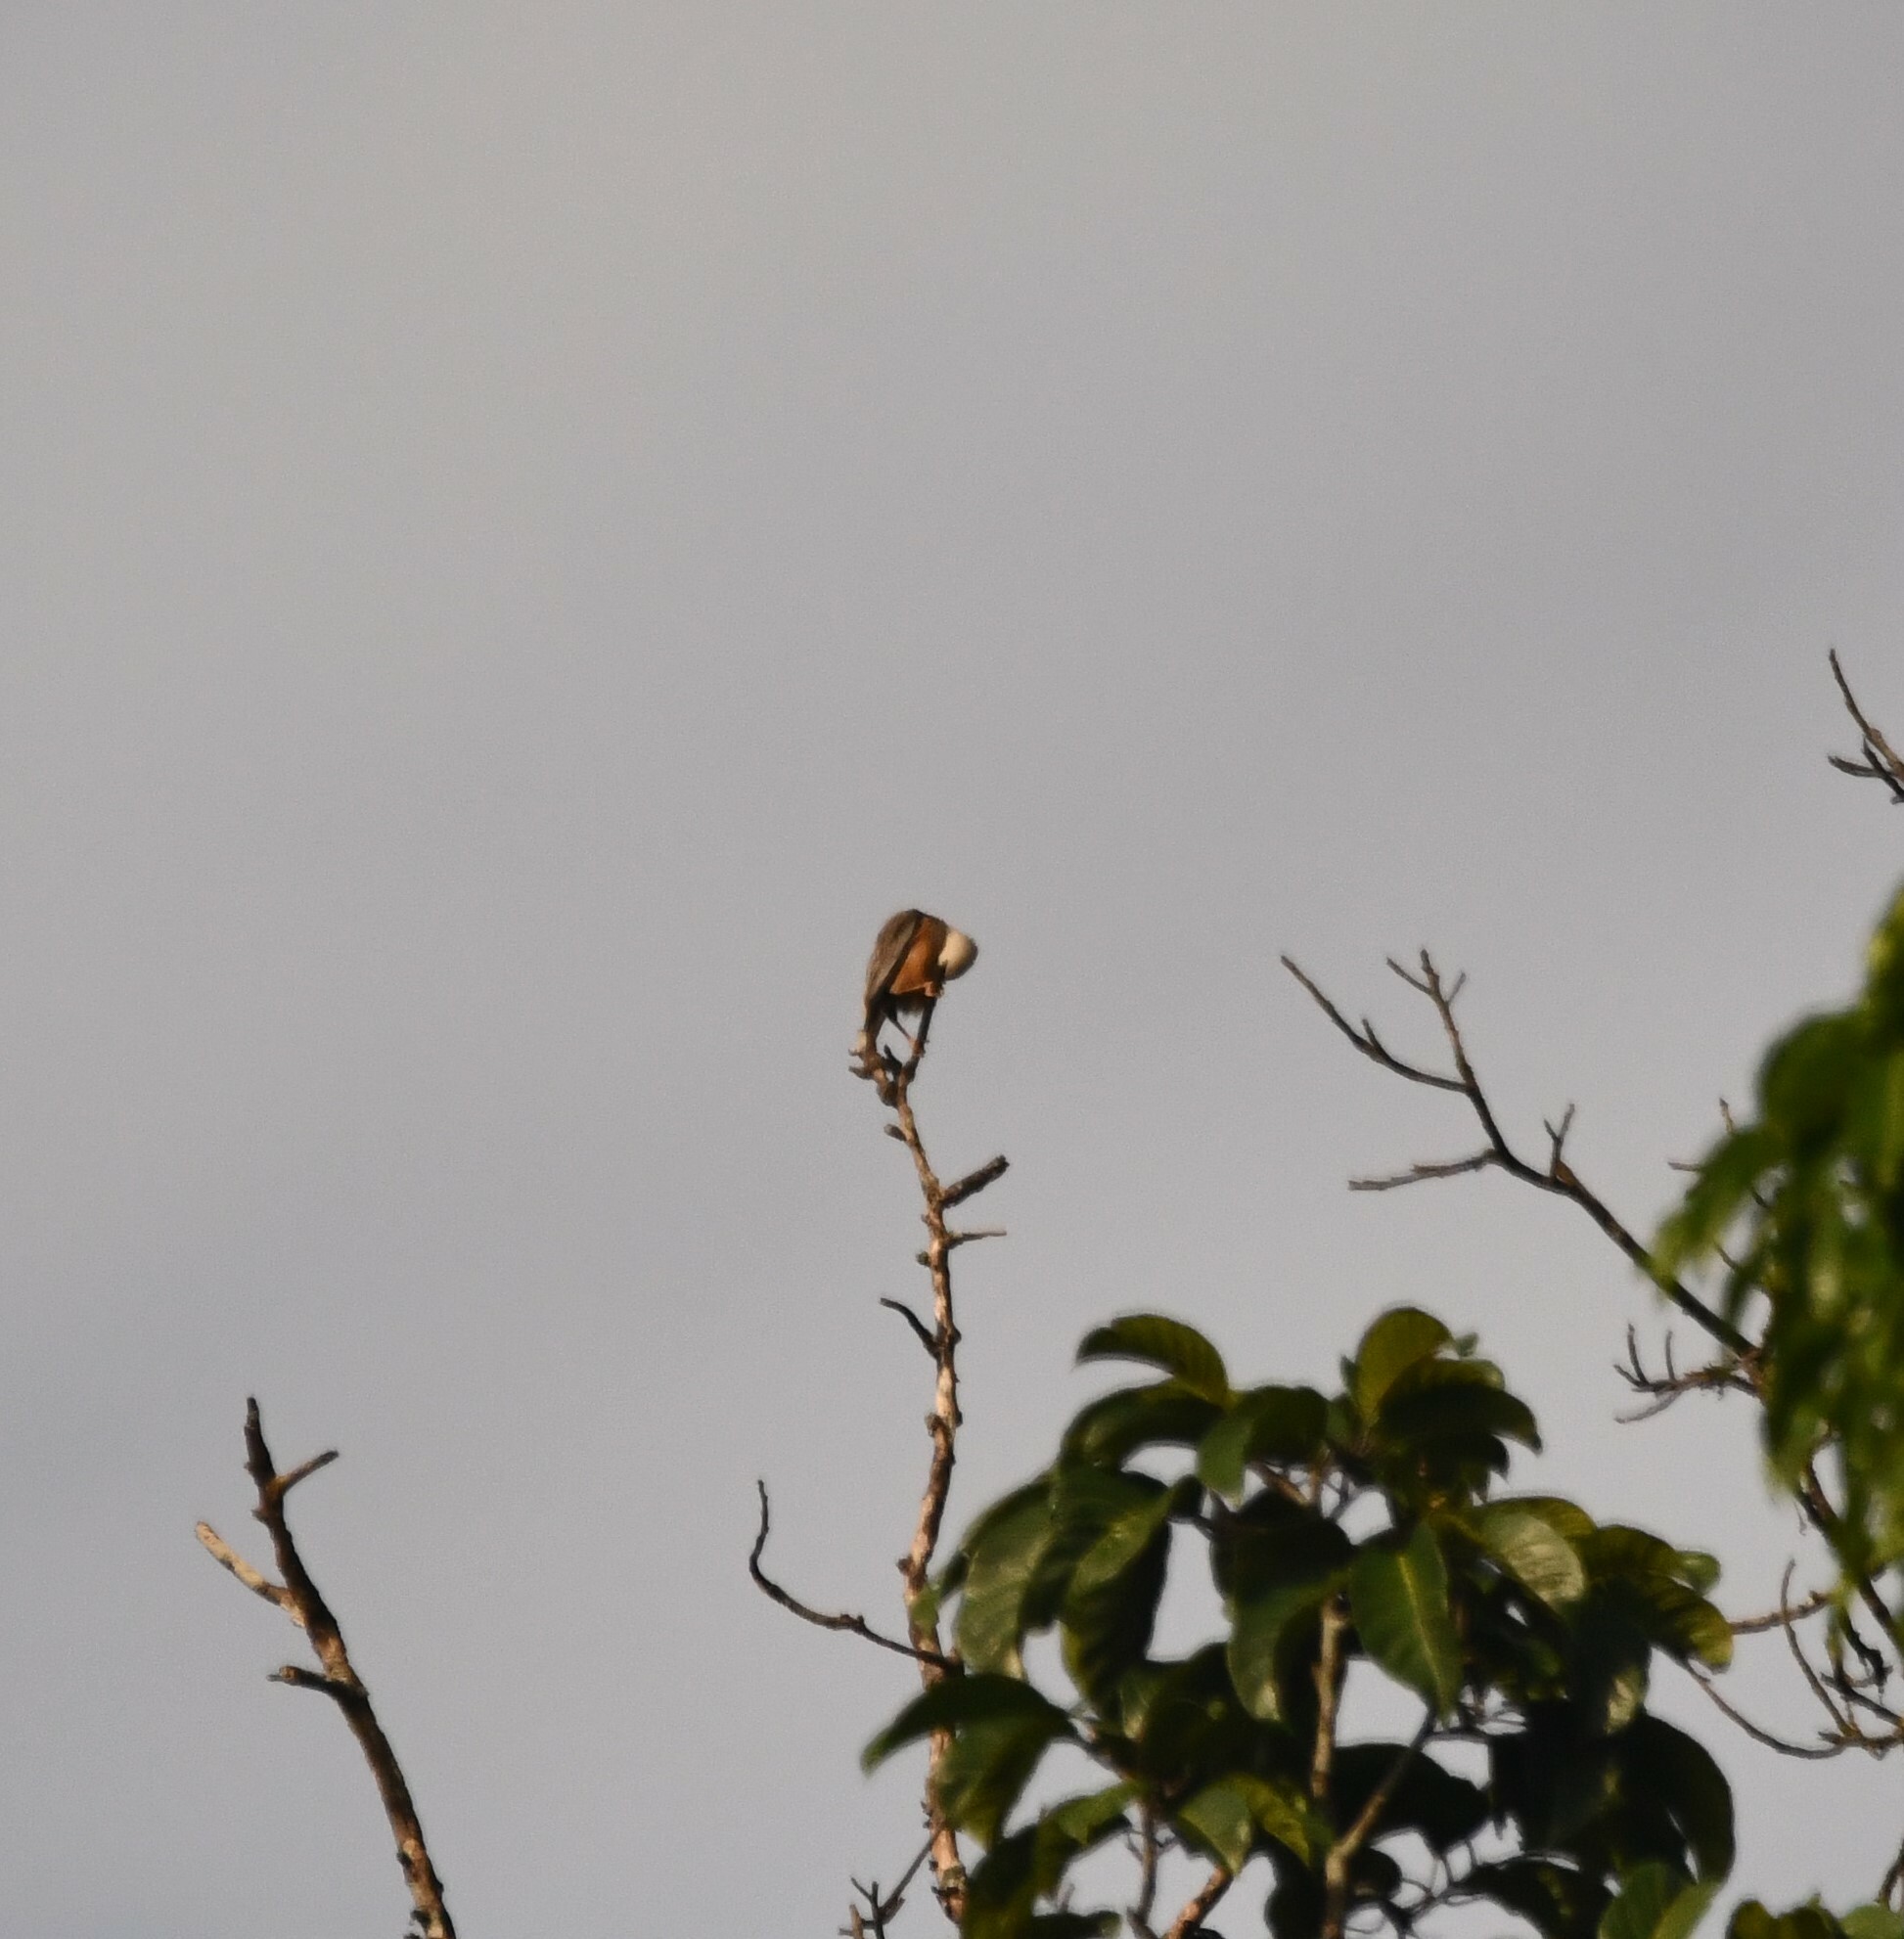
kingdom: Animalia
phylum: Chordata
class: Aves
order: Passeriformes
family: Sturnidae
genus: Sturnia
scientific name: Sturnia blythii
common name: Malabar starling
